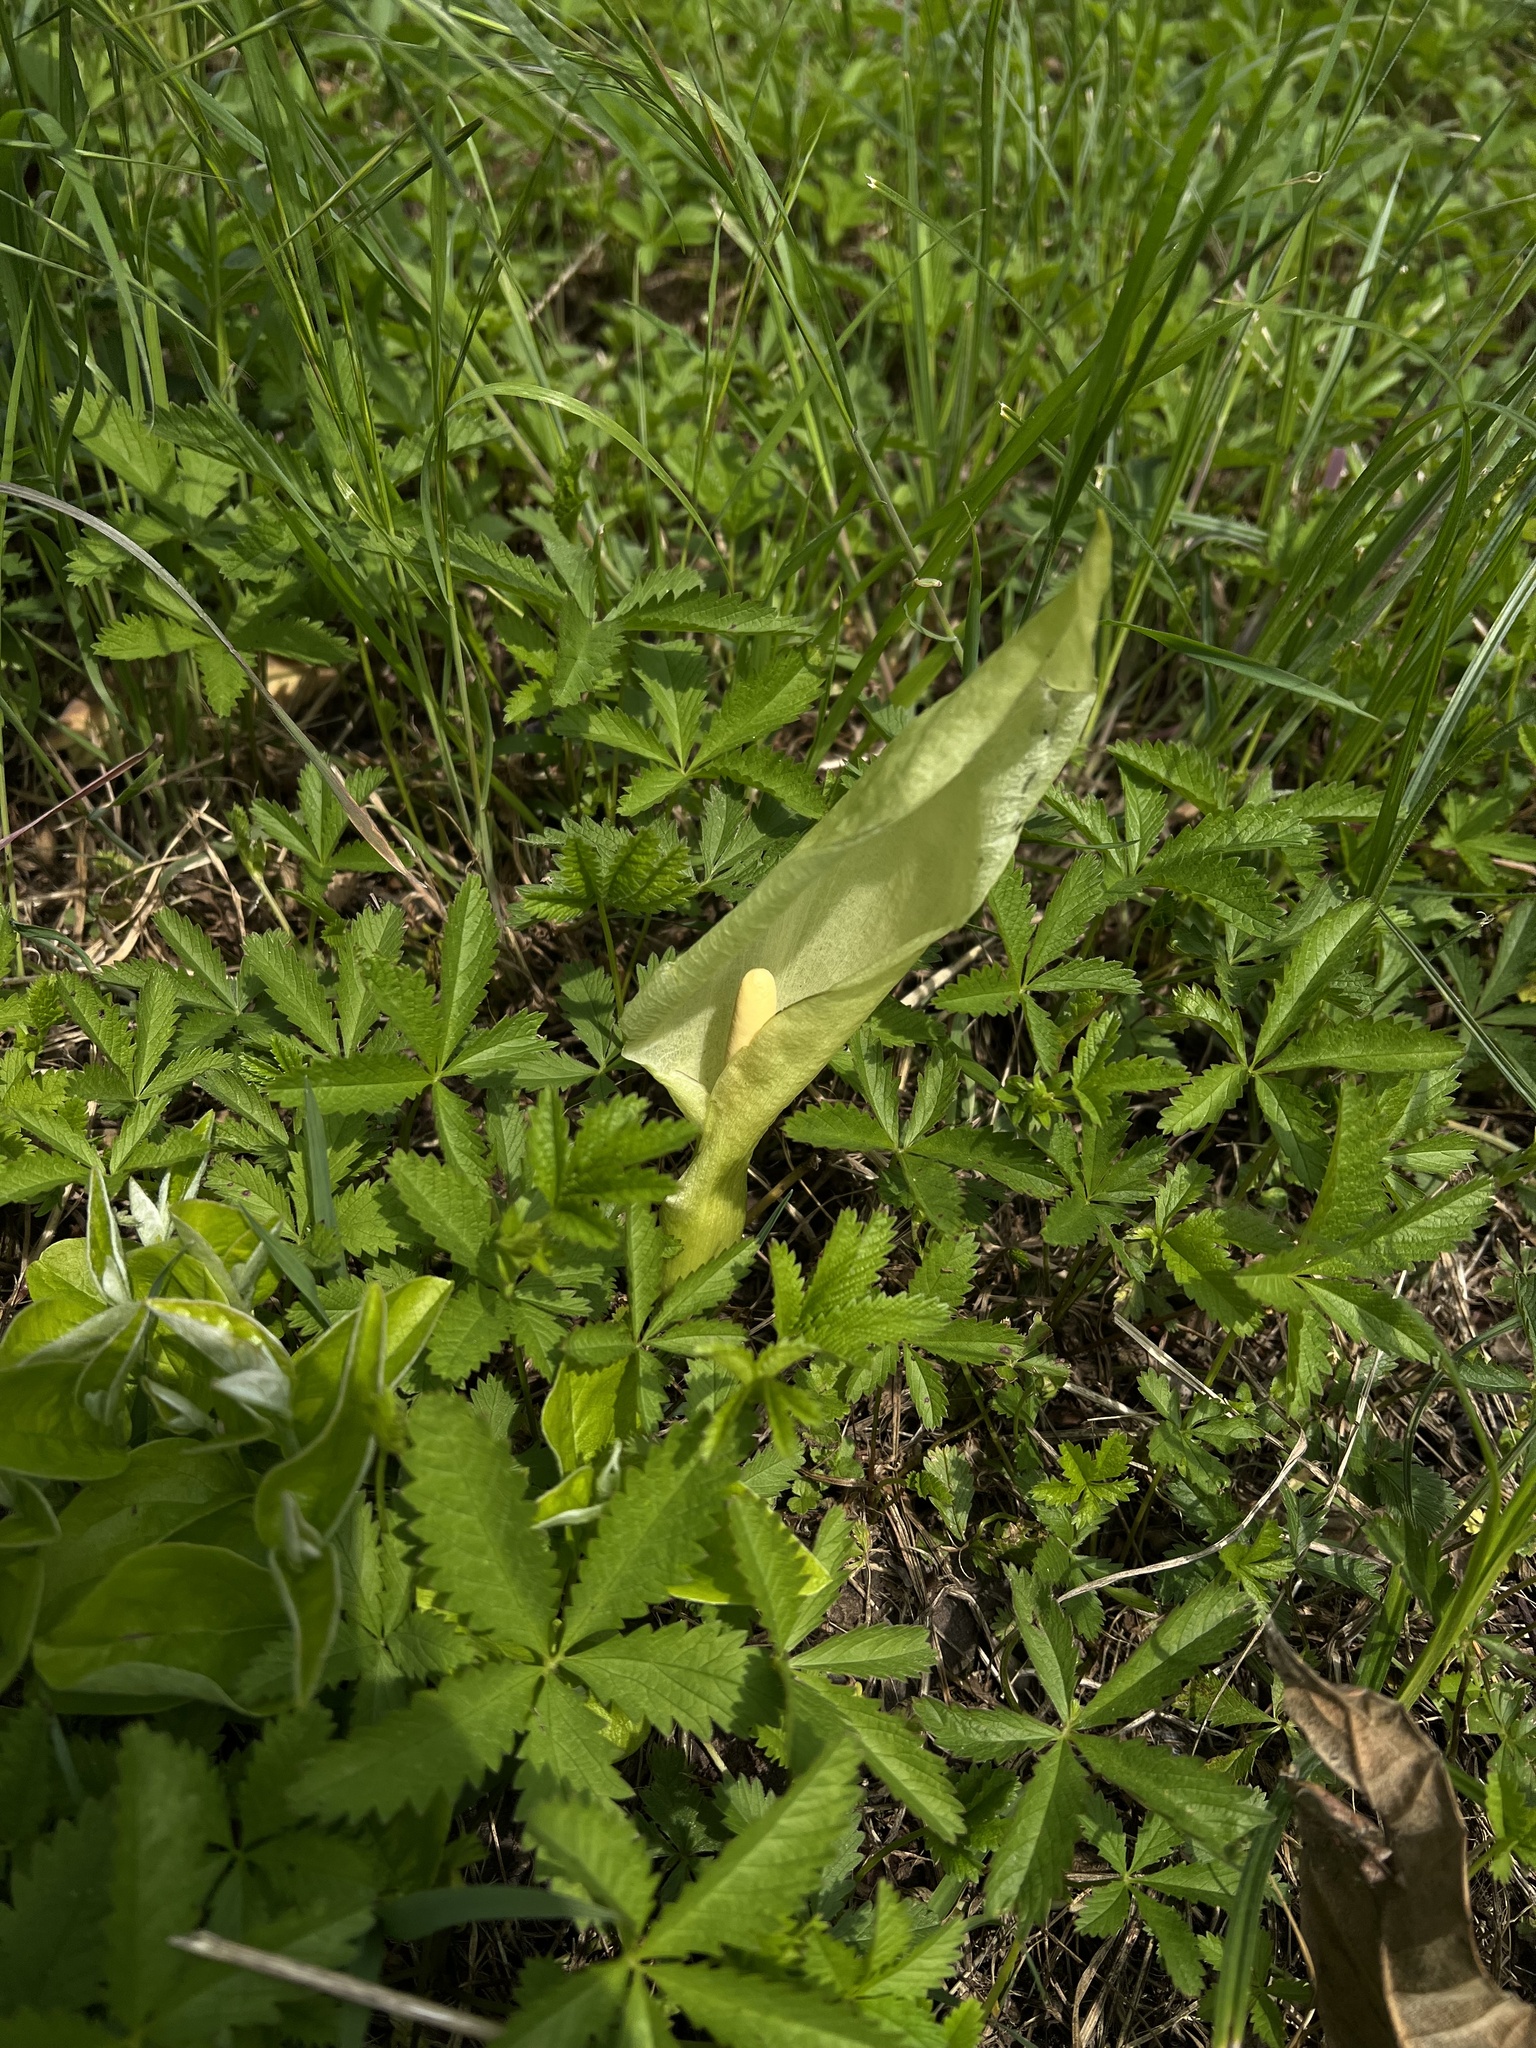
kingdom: Plantae
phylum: Tracheophyta
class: Liliopsida
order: Alismatales
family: Araceae
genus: Arum
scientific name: Arum italicum
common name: Italian lords-and-ladies
